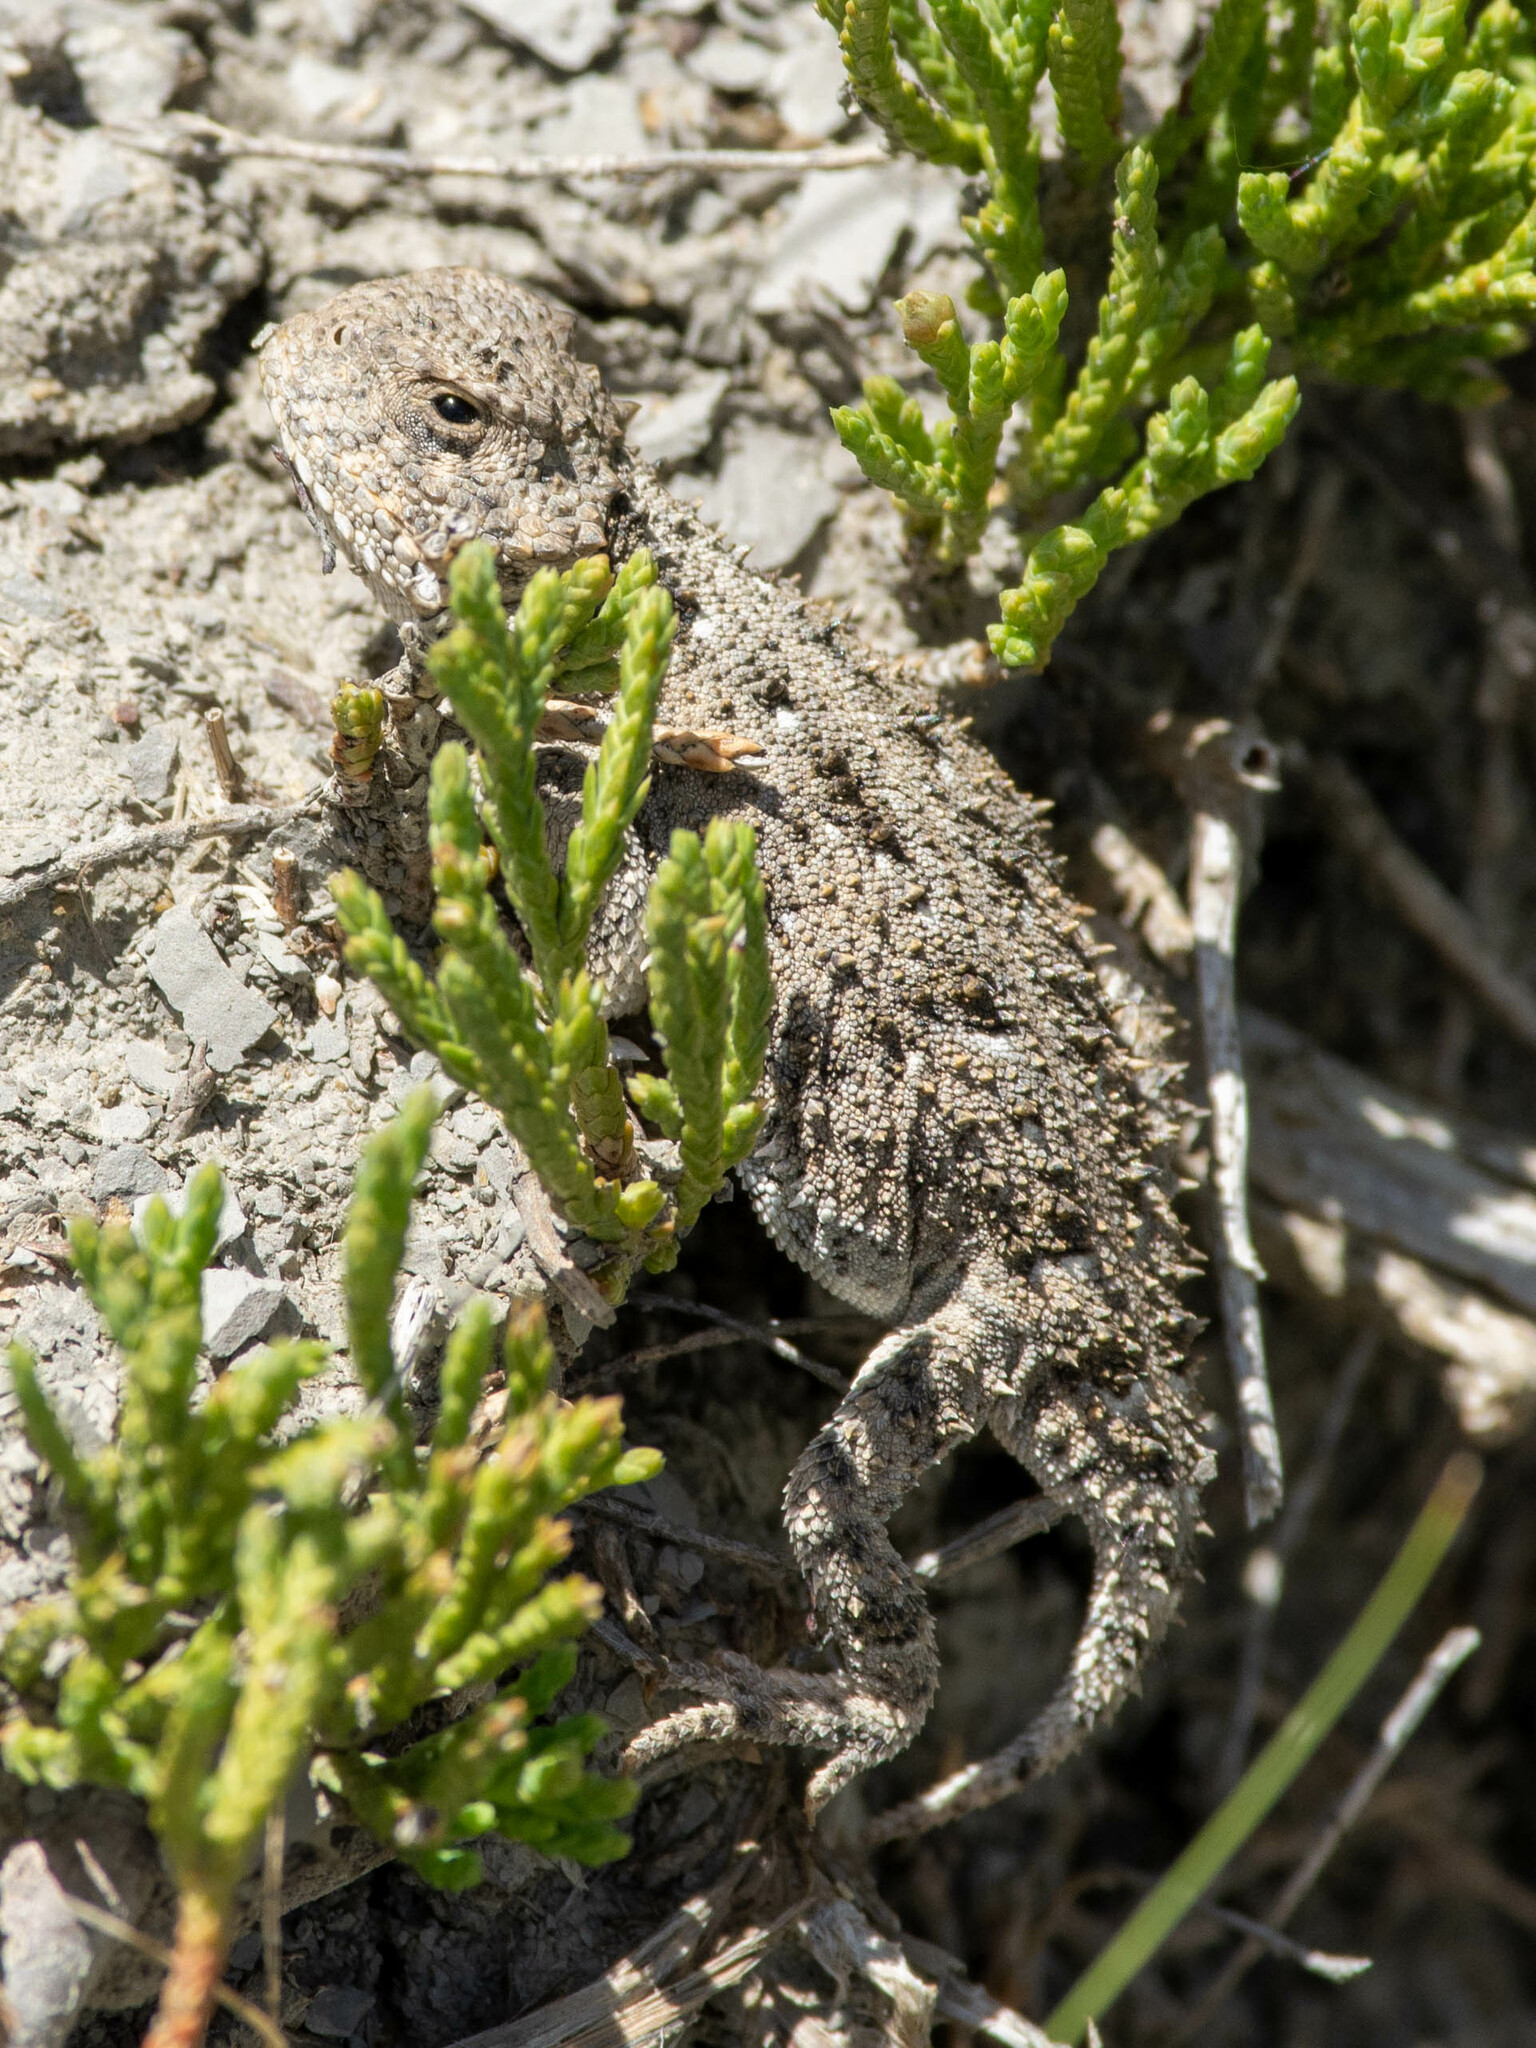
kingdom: Animalia
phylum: Chordata
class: Squamata
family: Phrynosomatidae
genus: Phrynosoma
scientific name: Phrynosoma hernandesi
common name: Greater short-horned lizard
